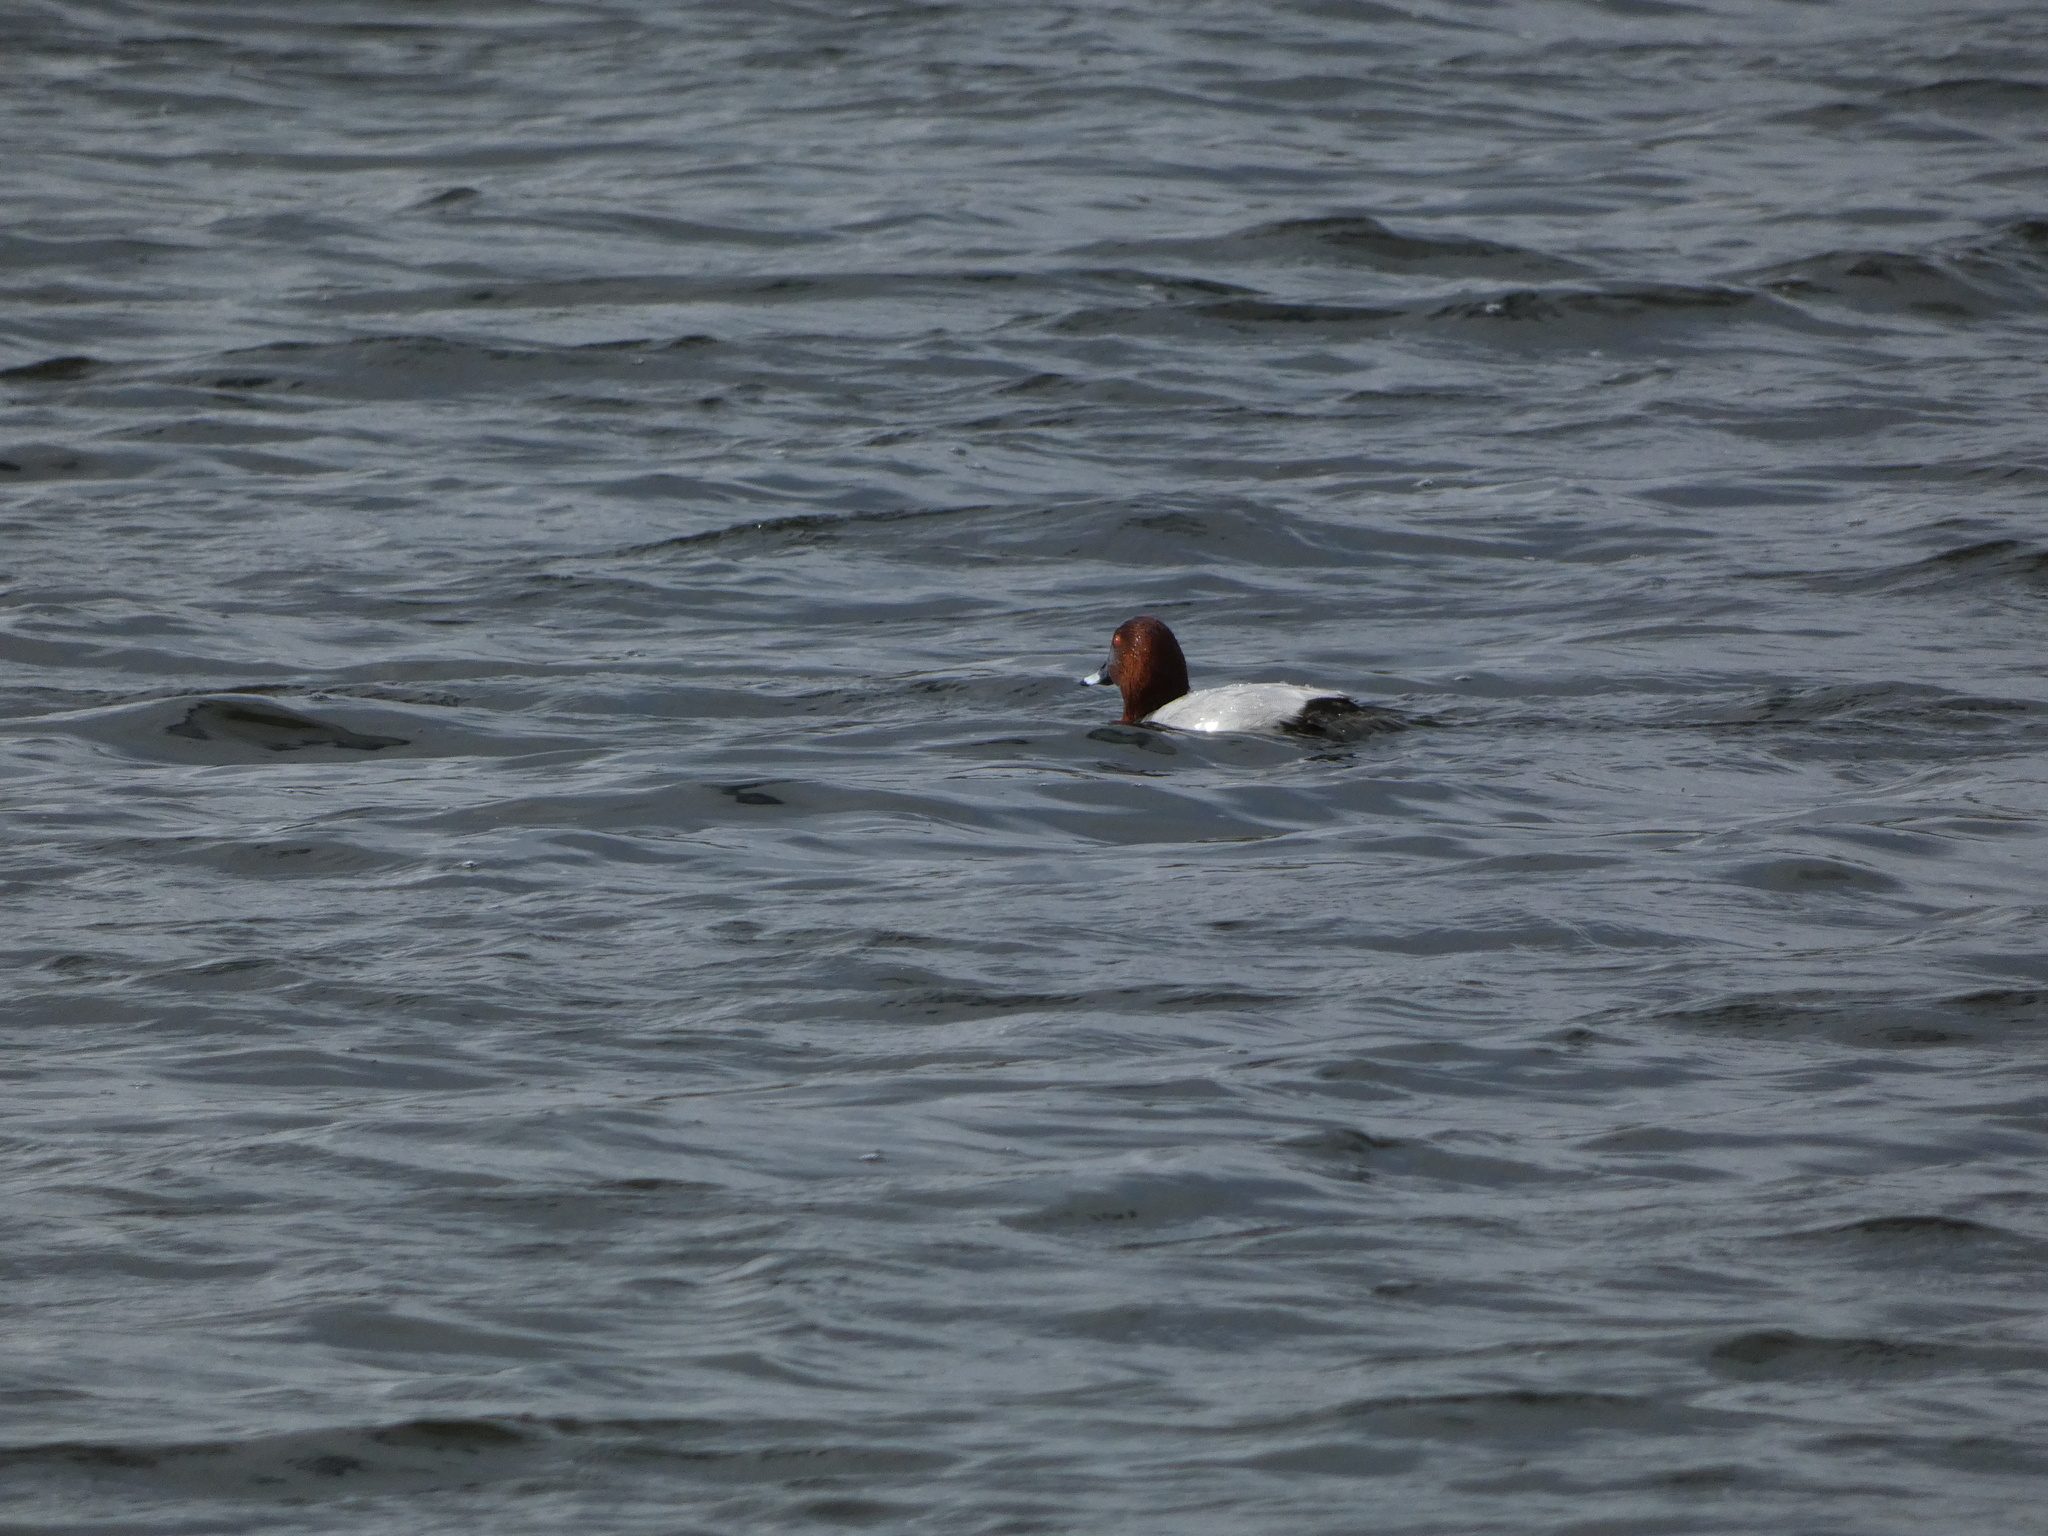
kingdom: Animalia
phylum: Chordata
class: Aves
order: Anseriformes
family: Anatidae
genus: Aythya
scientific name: Aythya ferina
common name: Common pochard
